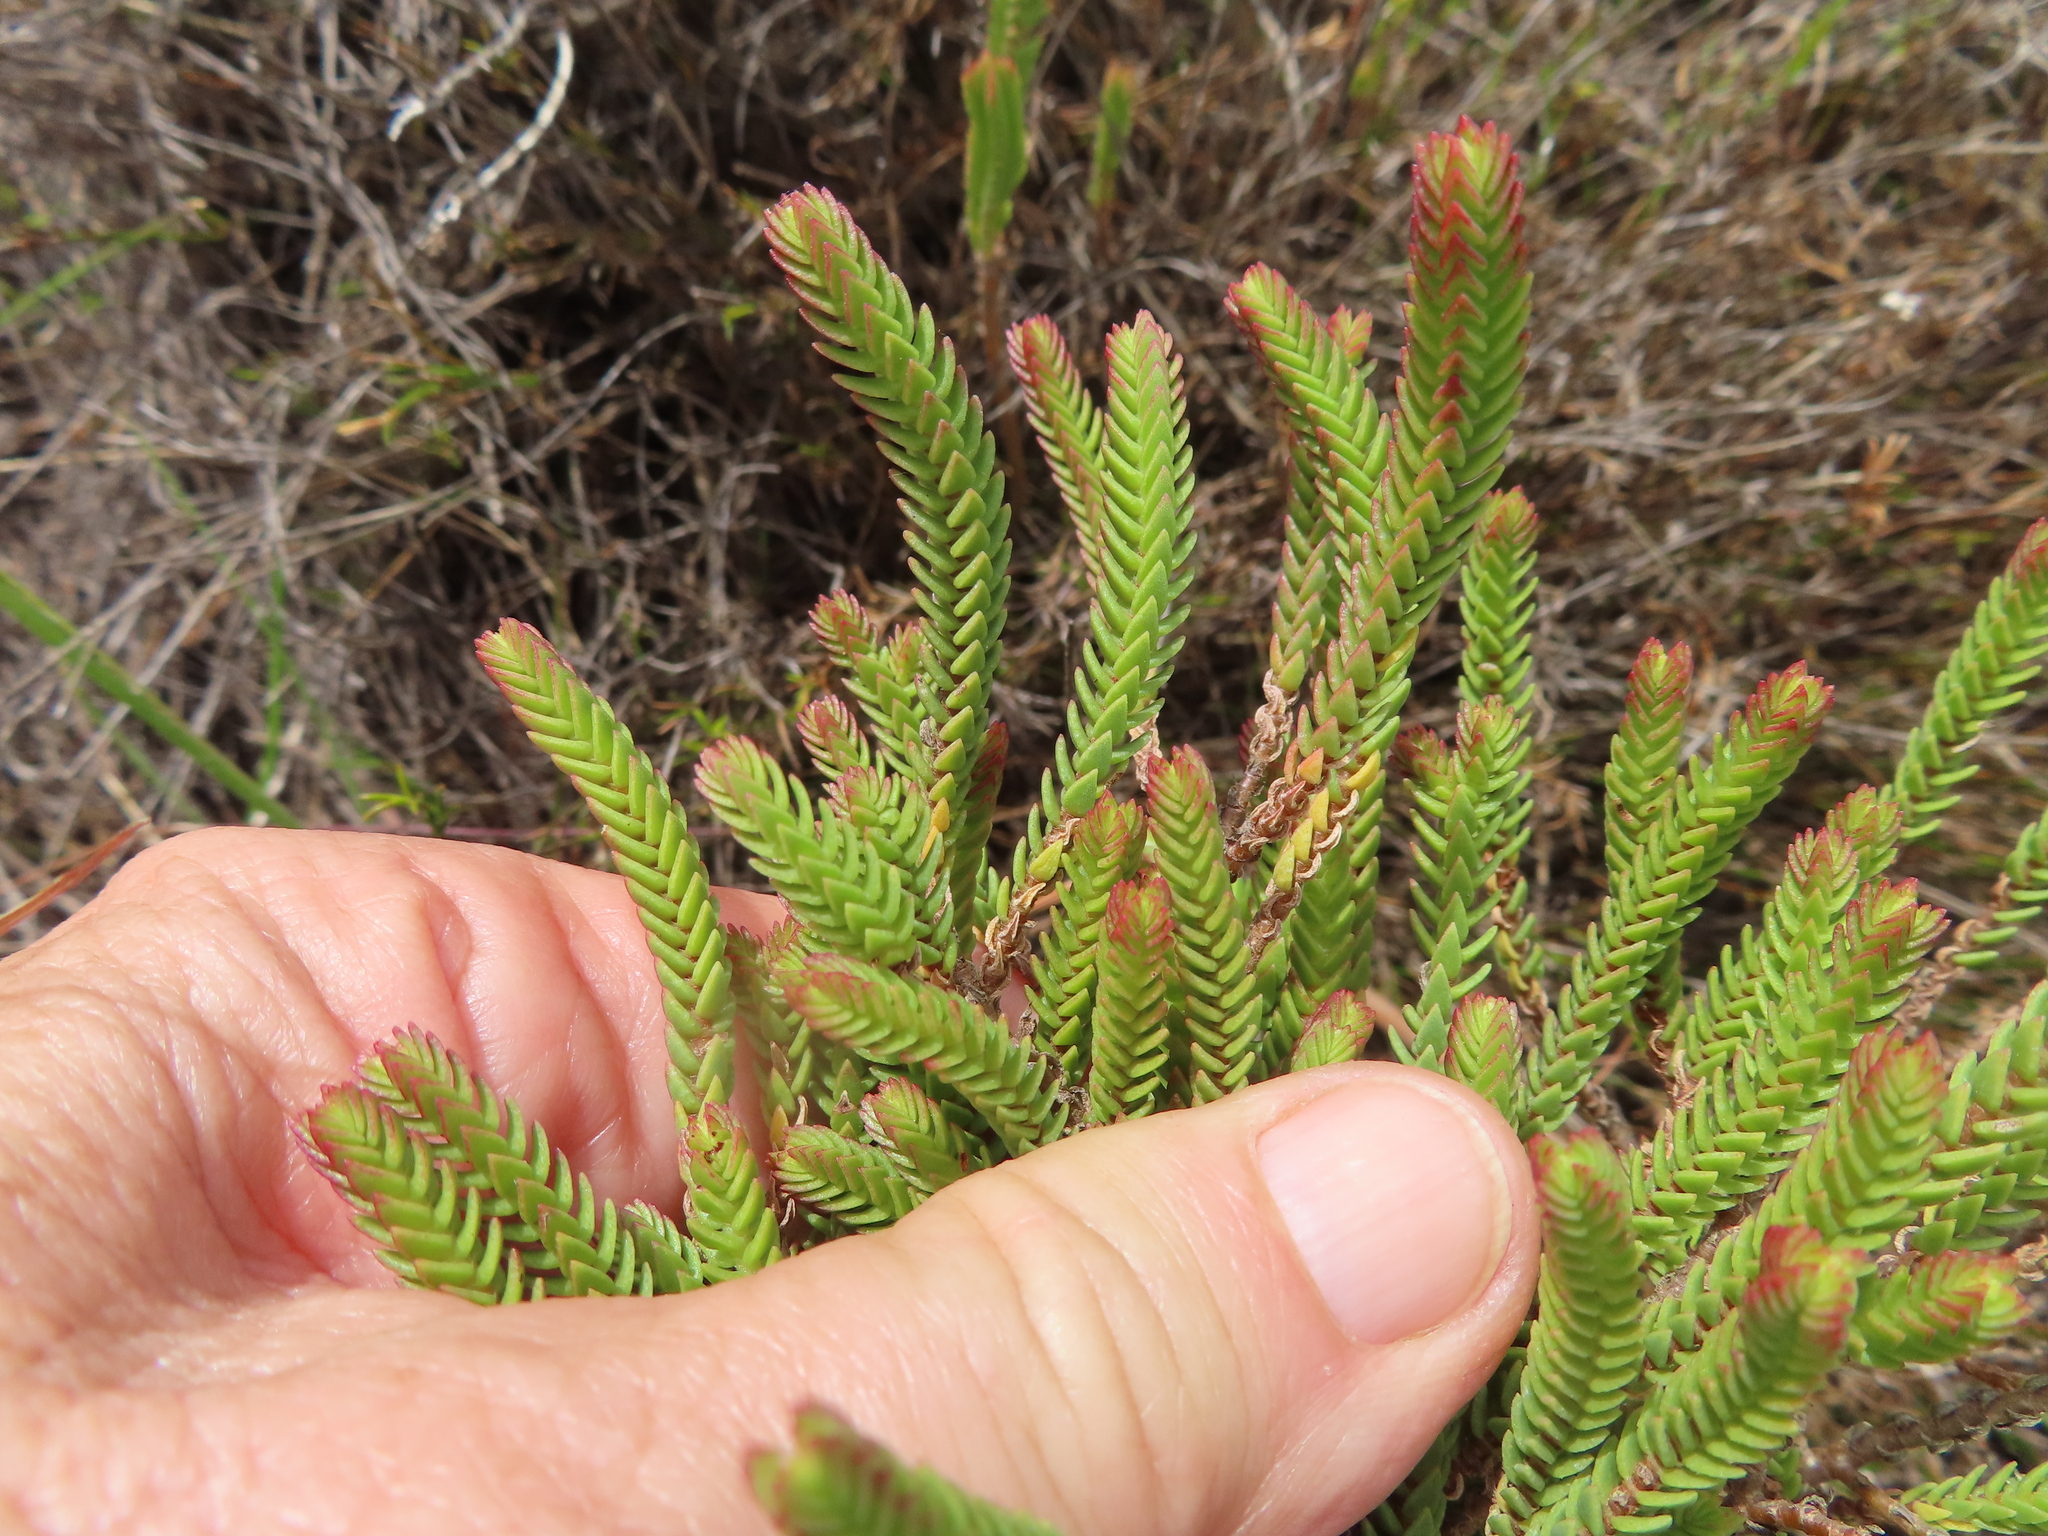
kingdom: Plantae
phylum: Tracheophyta
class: Magnoliopsida
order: Saxifragales
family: Crassulaceae
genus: Crassula
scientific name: Crassula ericoides
